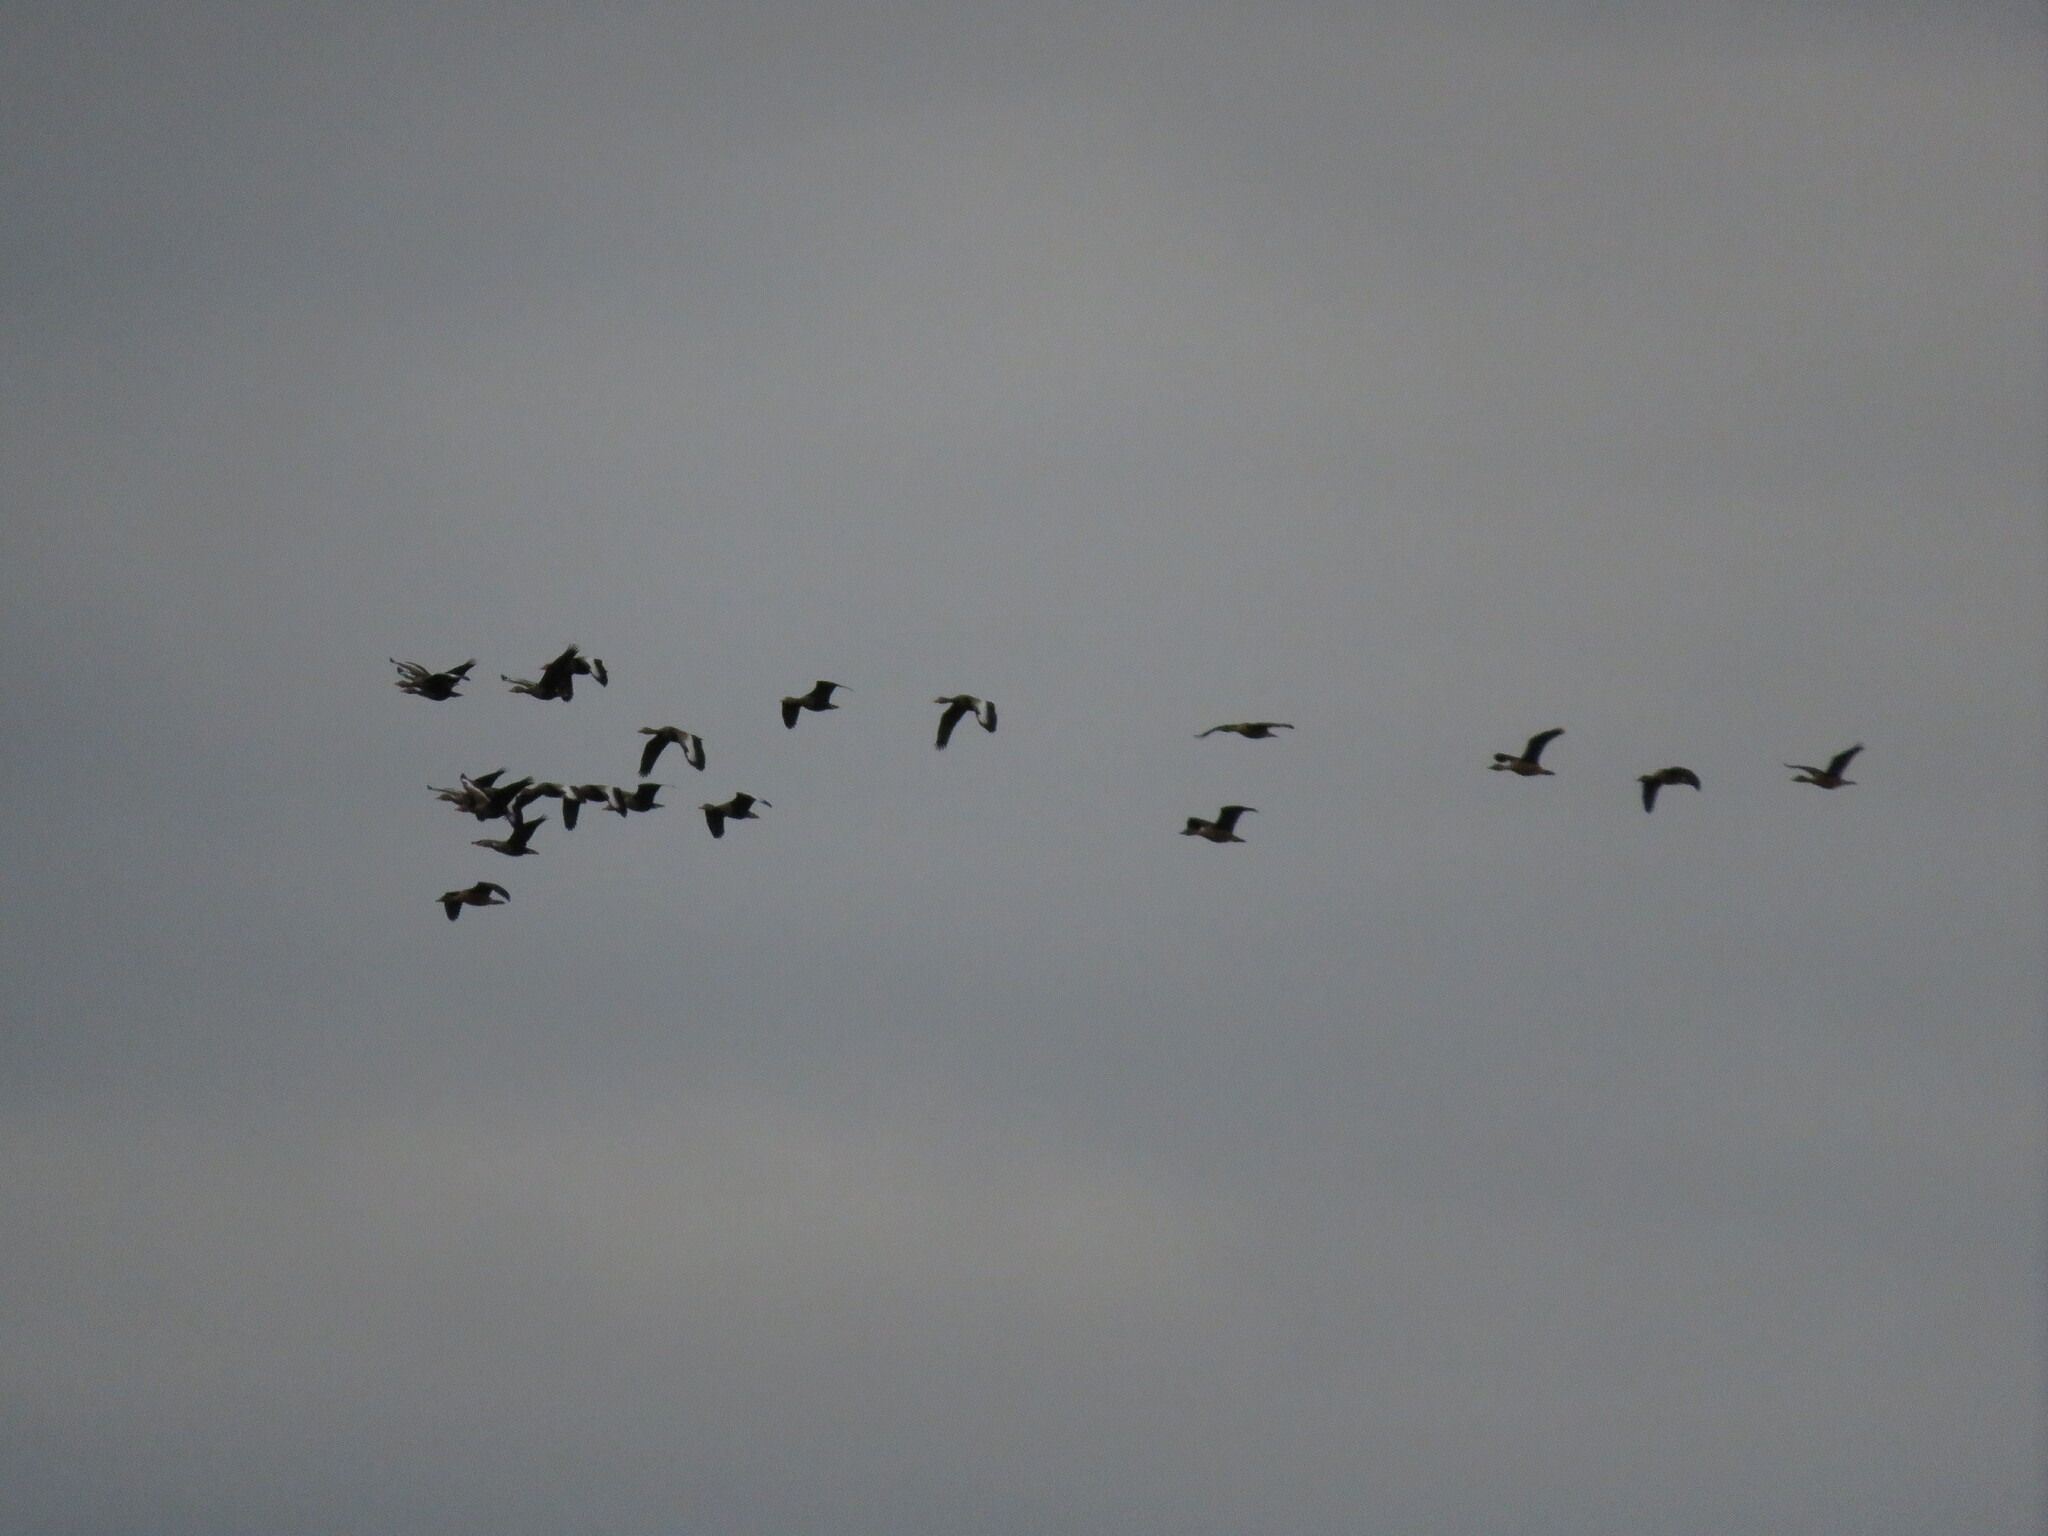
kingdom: Animalia
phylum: Chordata
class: Aves
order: Anseriformes
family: Anatidae
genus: Dendrocygna
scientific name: Dendrocygna autumnalis
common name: Black-bellied whistling duck
